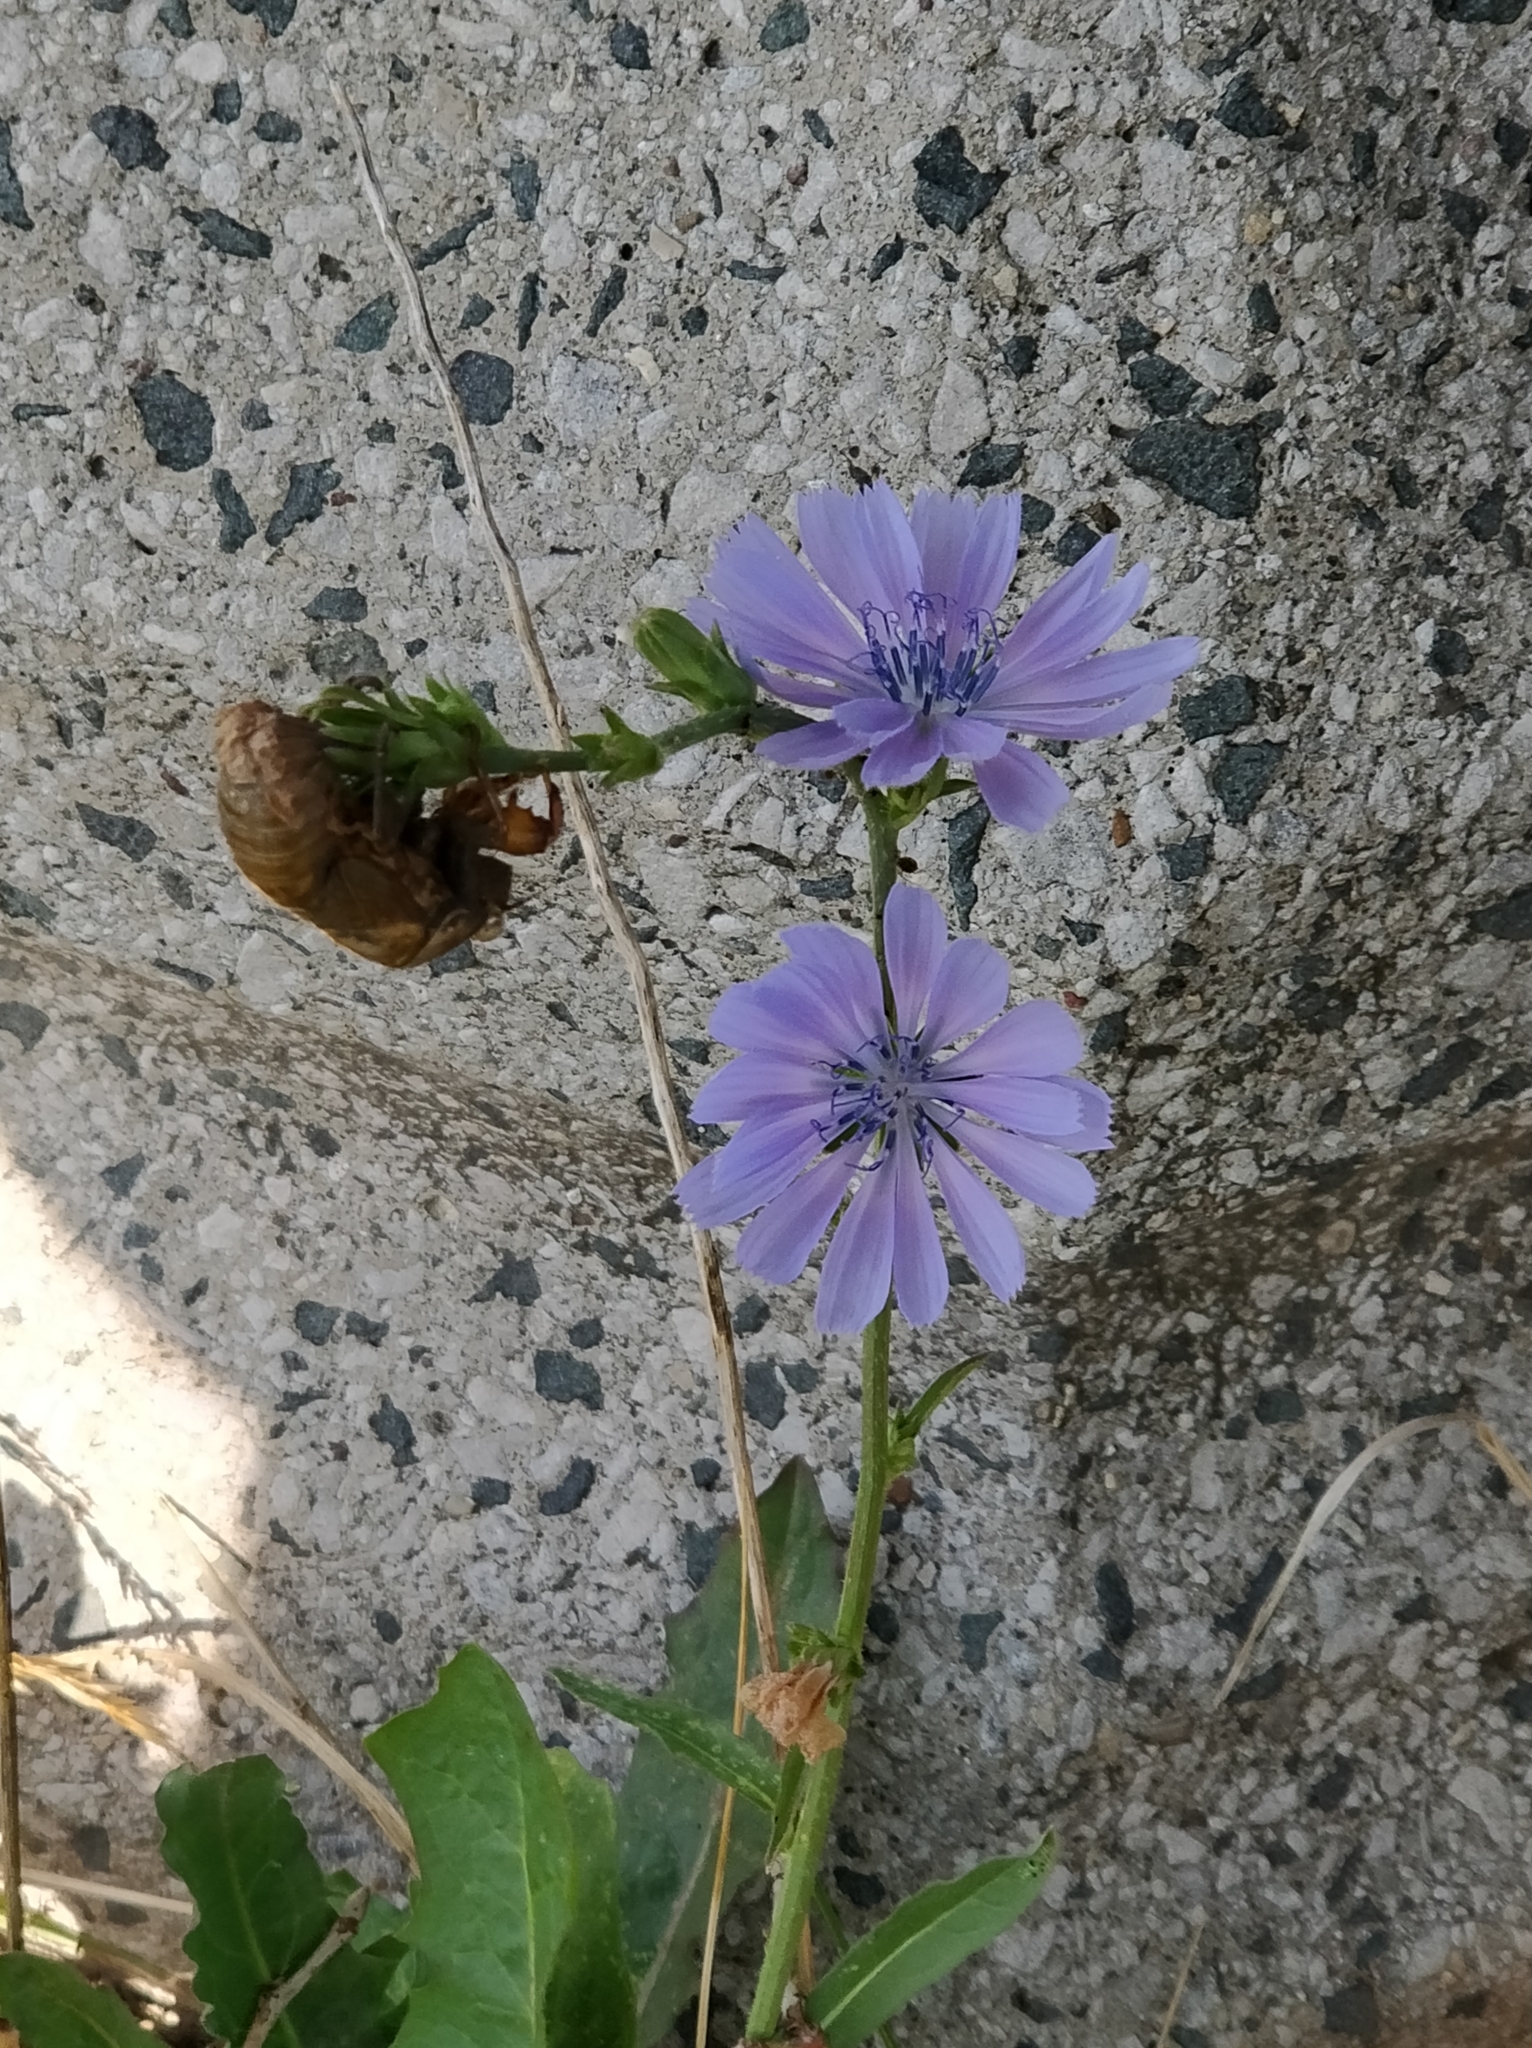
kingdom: Plantae
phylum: Tracheophyta
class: Magnoliopsida
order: Asterales
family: Asteraceae
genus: Cichorium
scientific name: Cichorium intybus
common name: Chicory
